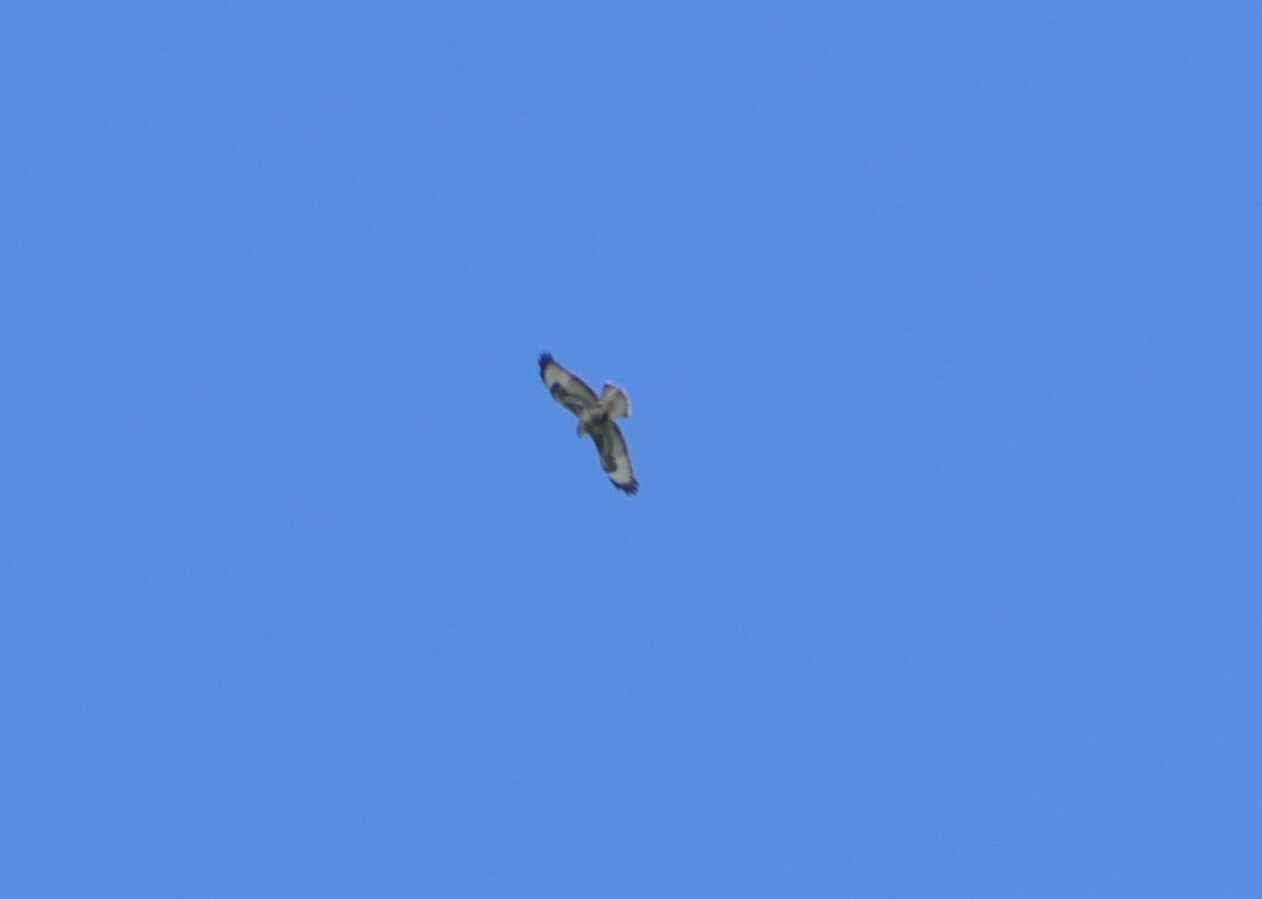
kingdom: Animalia
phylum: Chordata
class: Aves
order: Accipitriformes
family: Accipitridae
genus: Buteo
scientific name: Buteo buteo
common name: Common buzzard
